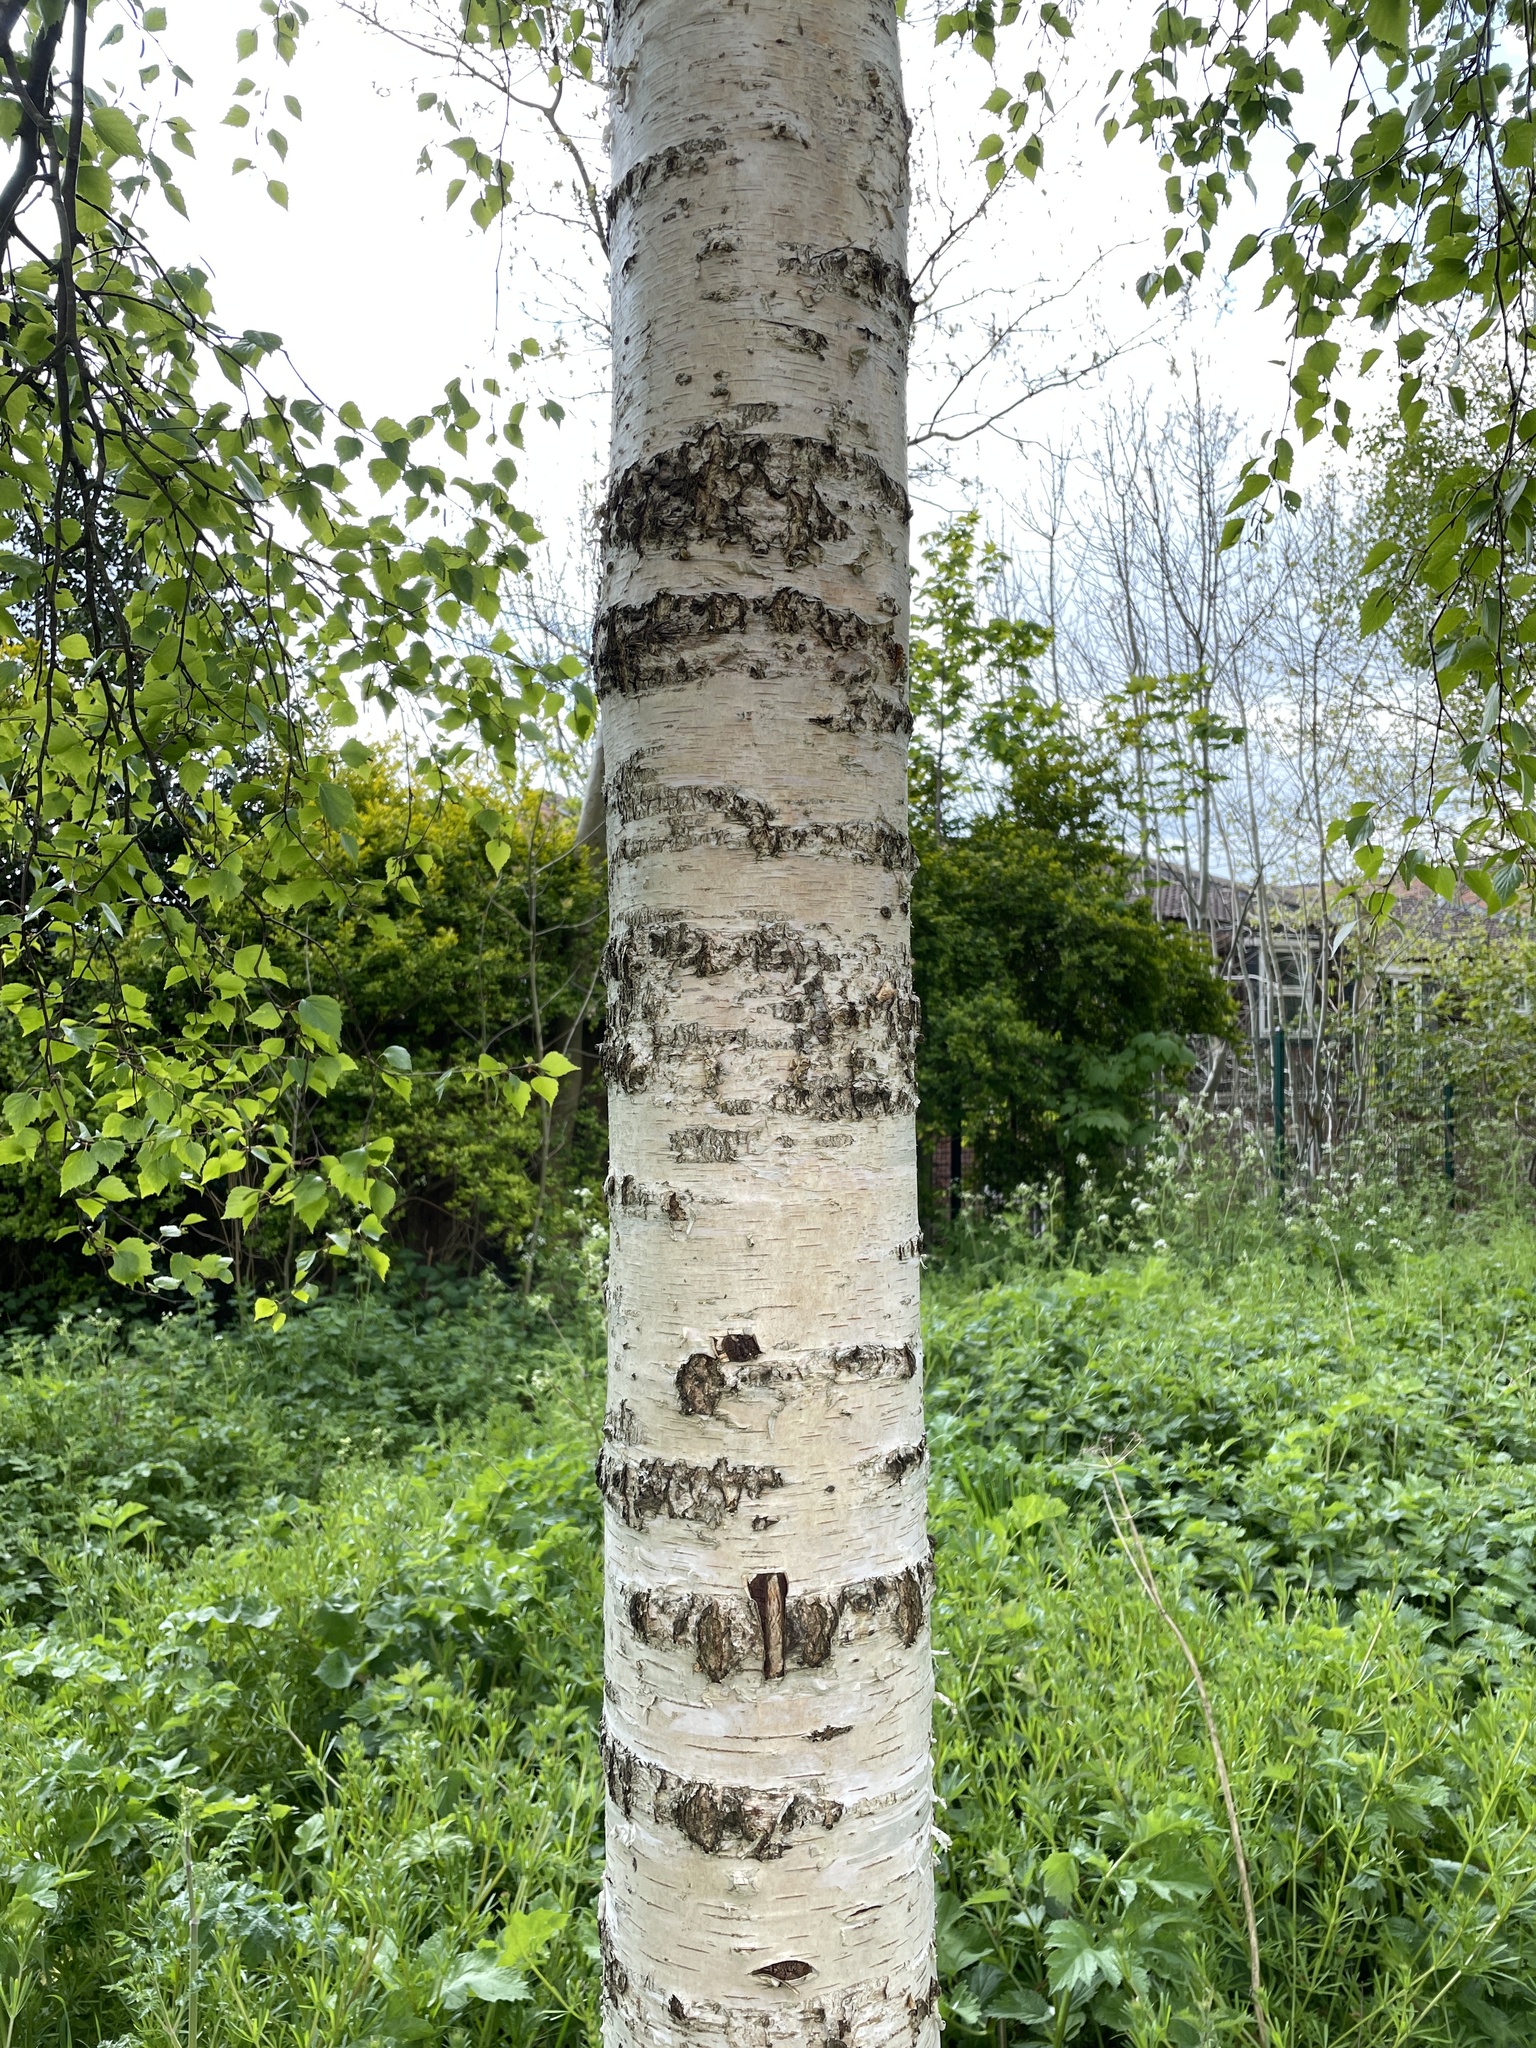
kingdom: Plantae
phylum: Tracheophyta
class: Magnoliopsida
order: Fagales
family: Betulaceae
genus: Betula
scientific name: Betula pendula
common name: Silver birch
